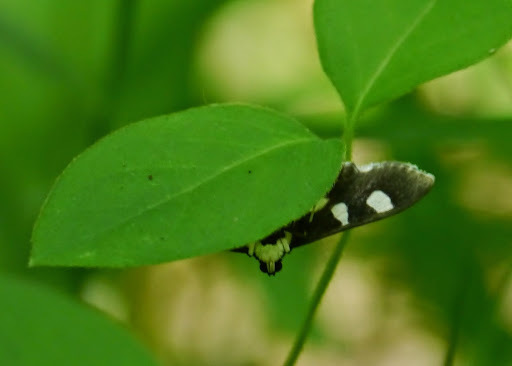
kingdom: Animalia
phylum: Arthropoda
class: Insecta
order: Lepidoptera
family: Crambidae
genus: Desmia
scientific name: Desmia
